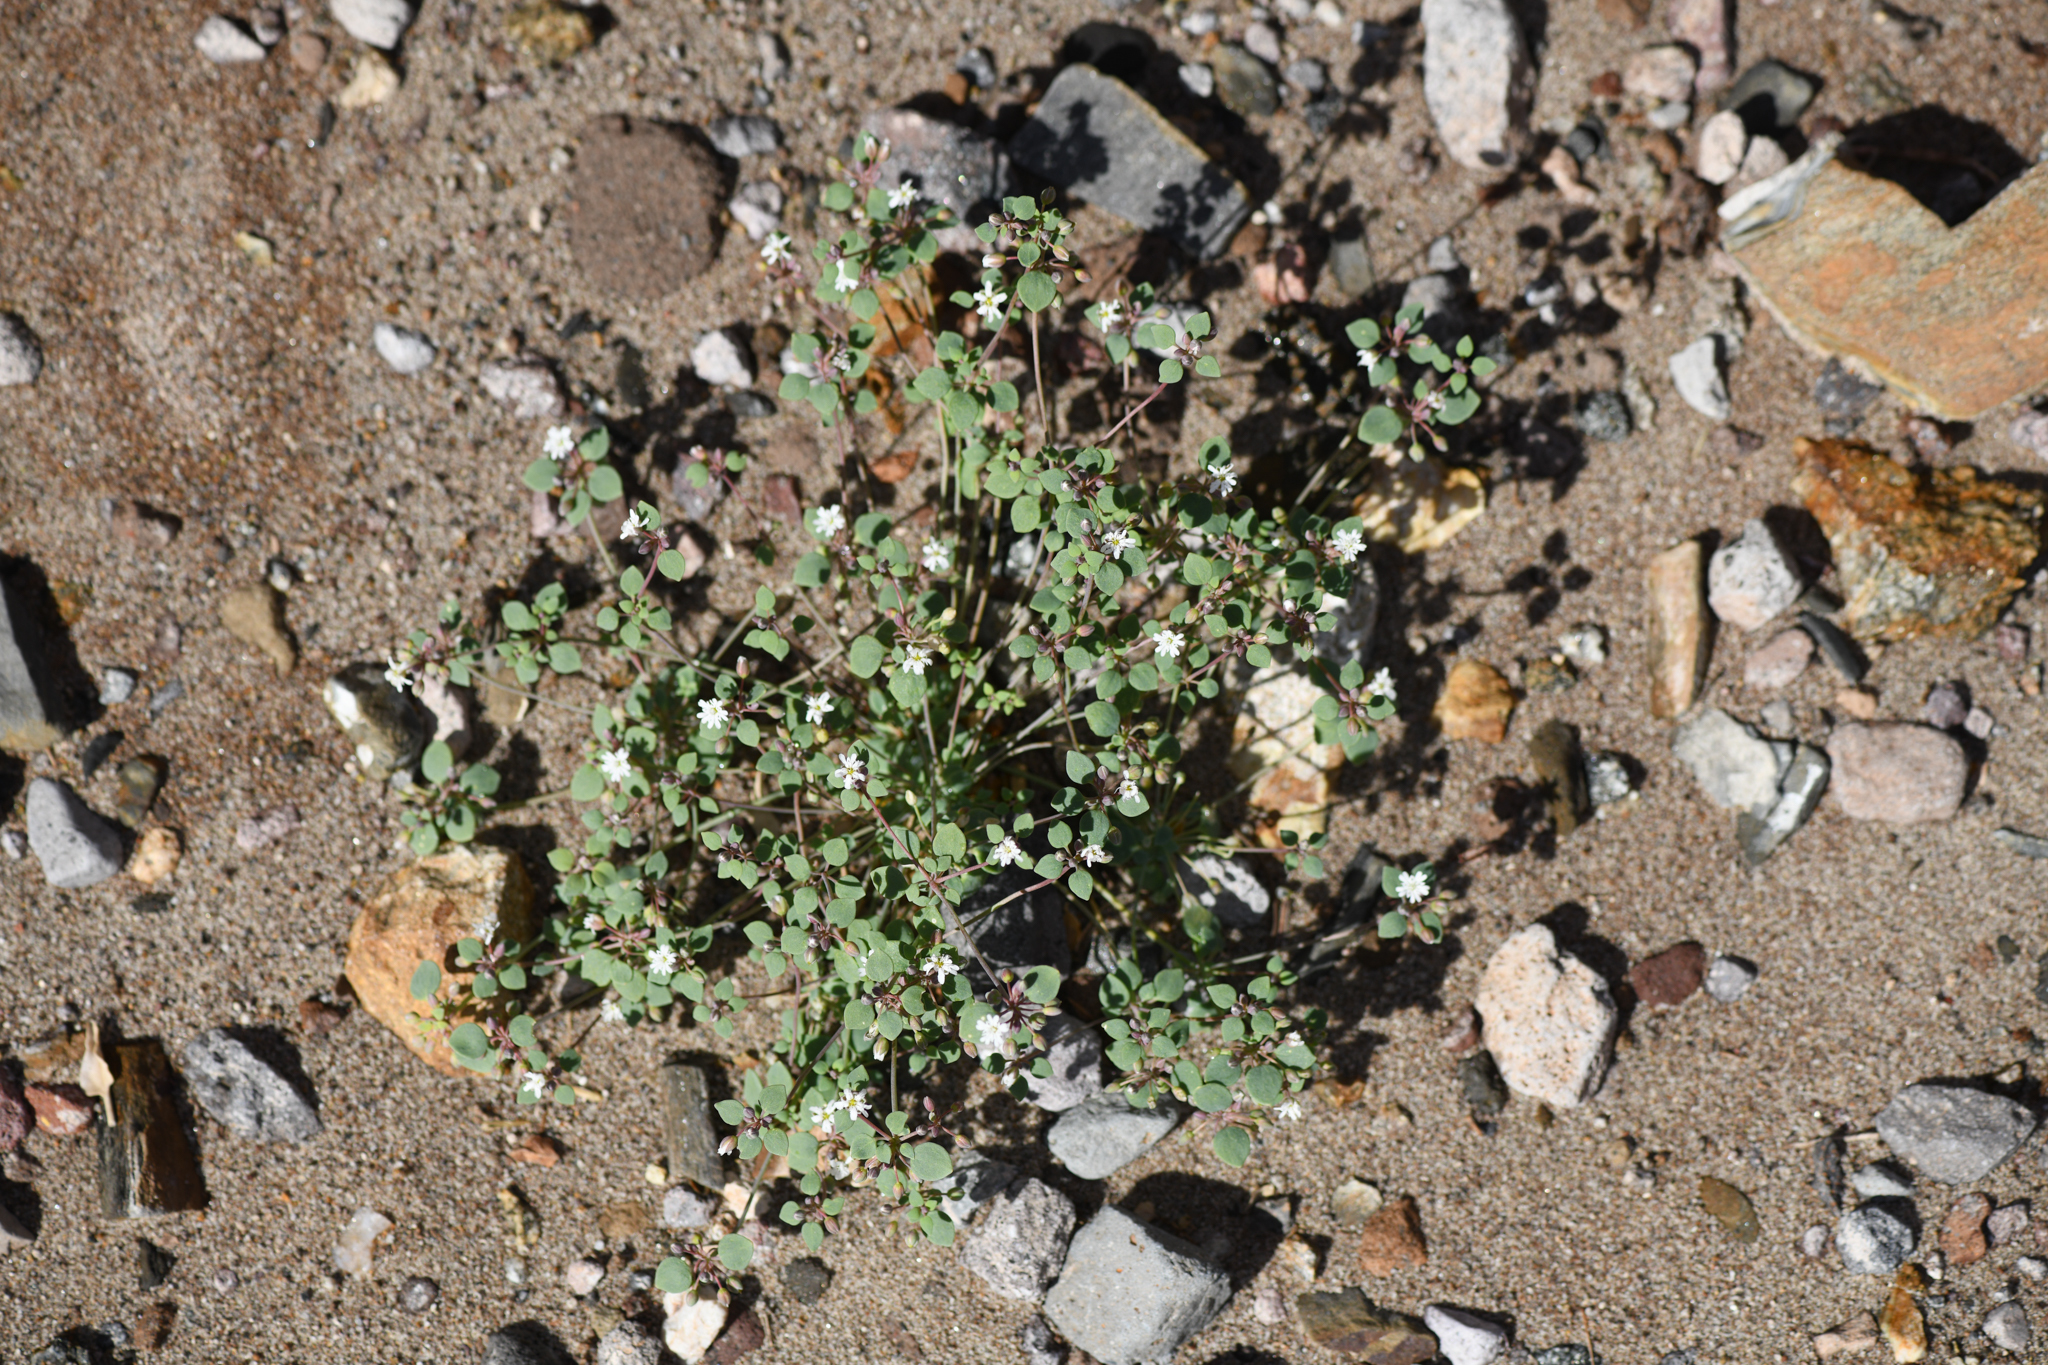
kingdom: Plantae
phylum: Tracheophyta
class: Magnoliopsida
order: Caryophyllales
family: Caryophyllaceae
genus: Drymaria
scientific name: Drymaria holosteoides
